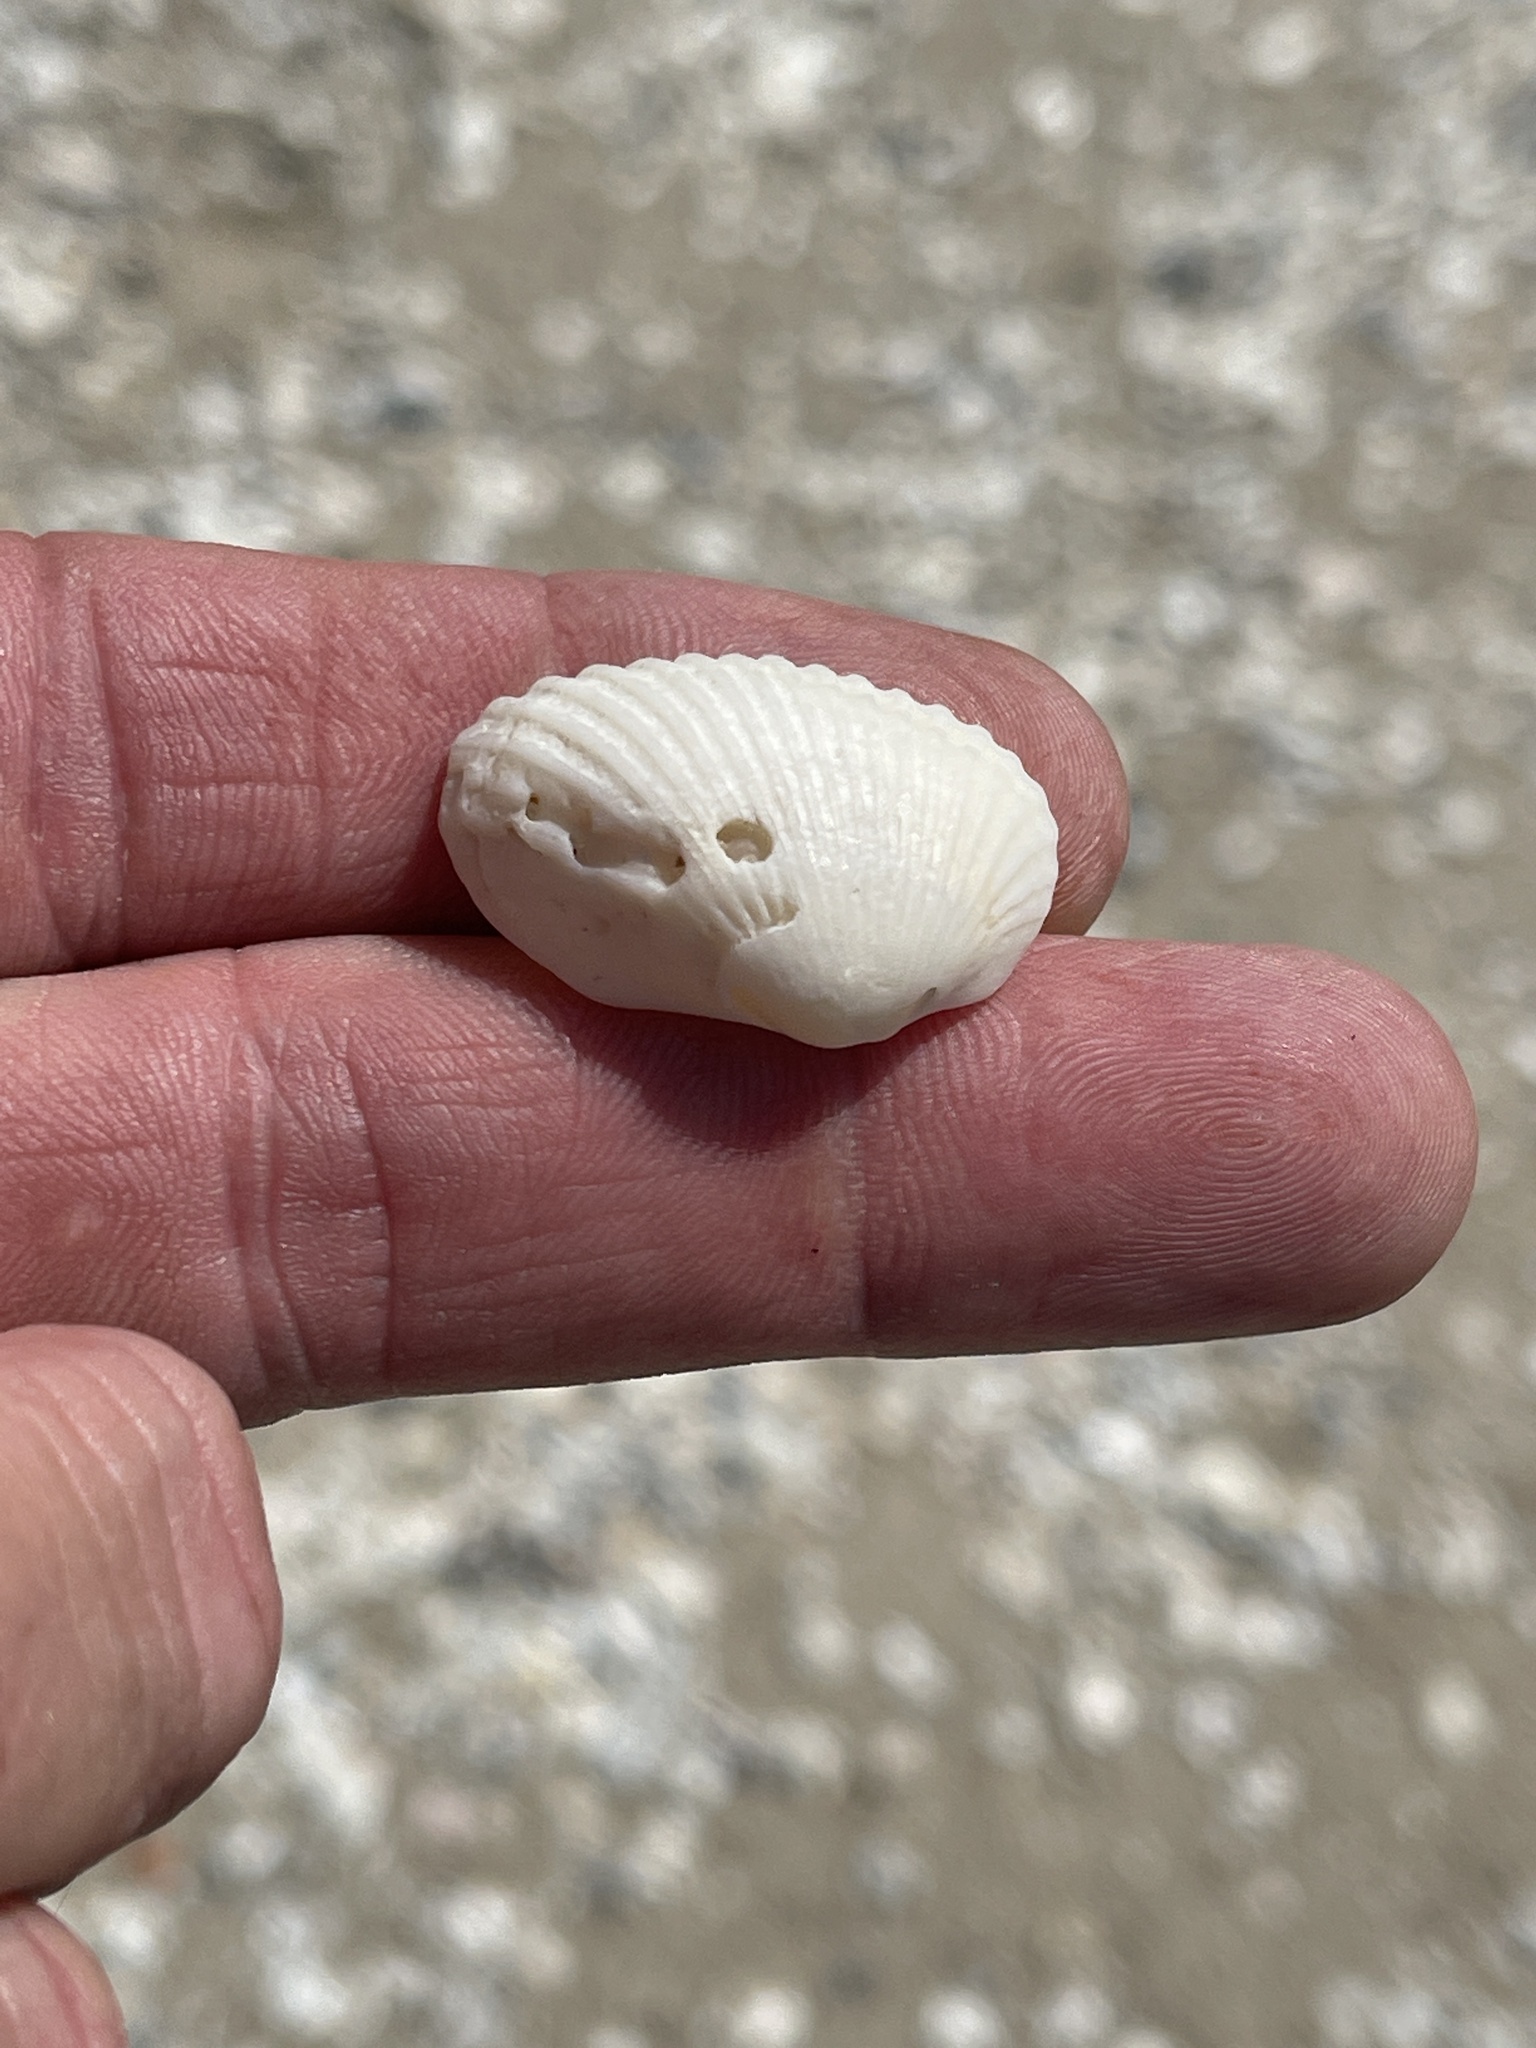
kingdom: Animalia
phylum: Mollusca
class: Bivalvia
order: Arcida
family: Arcidae
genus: Anadara
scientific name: Anadara transversa
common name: Transverse ark
